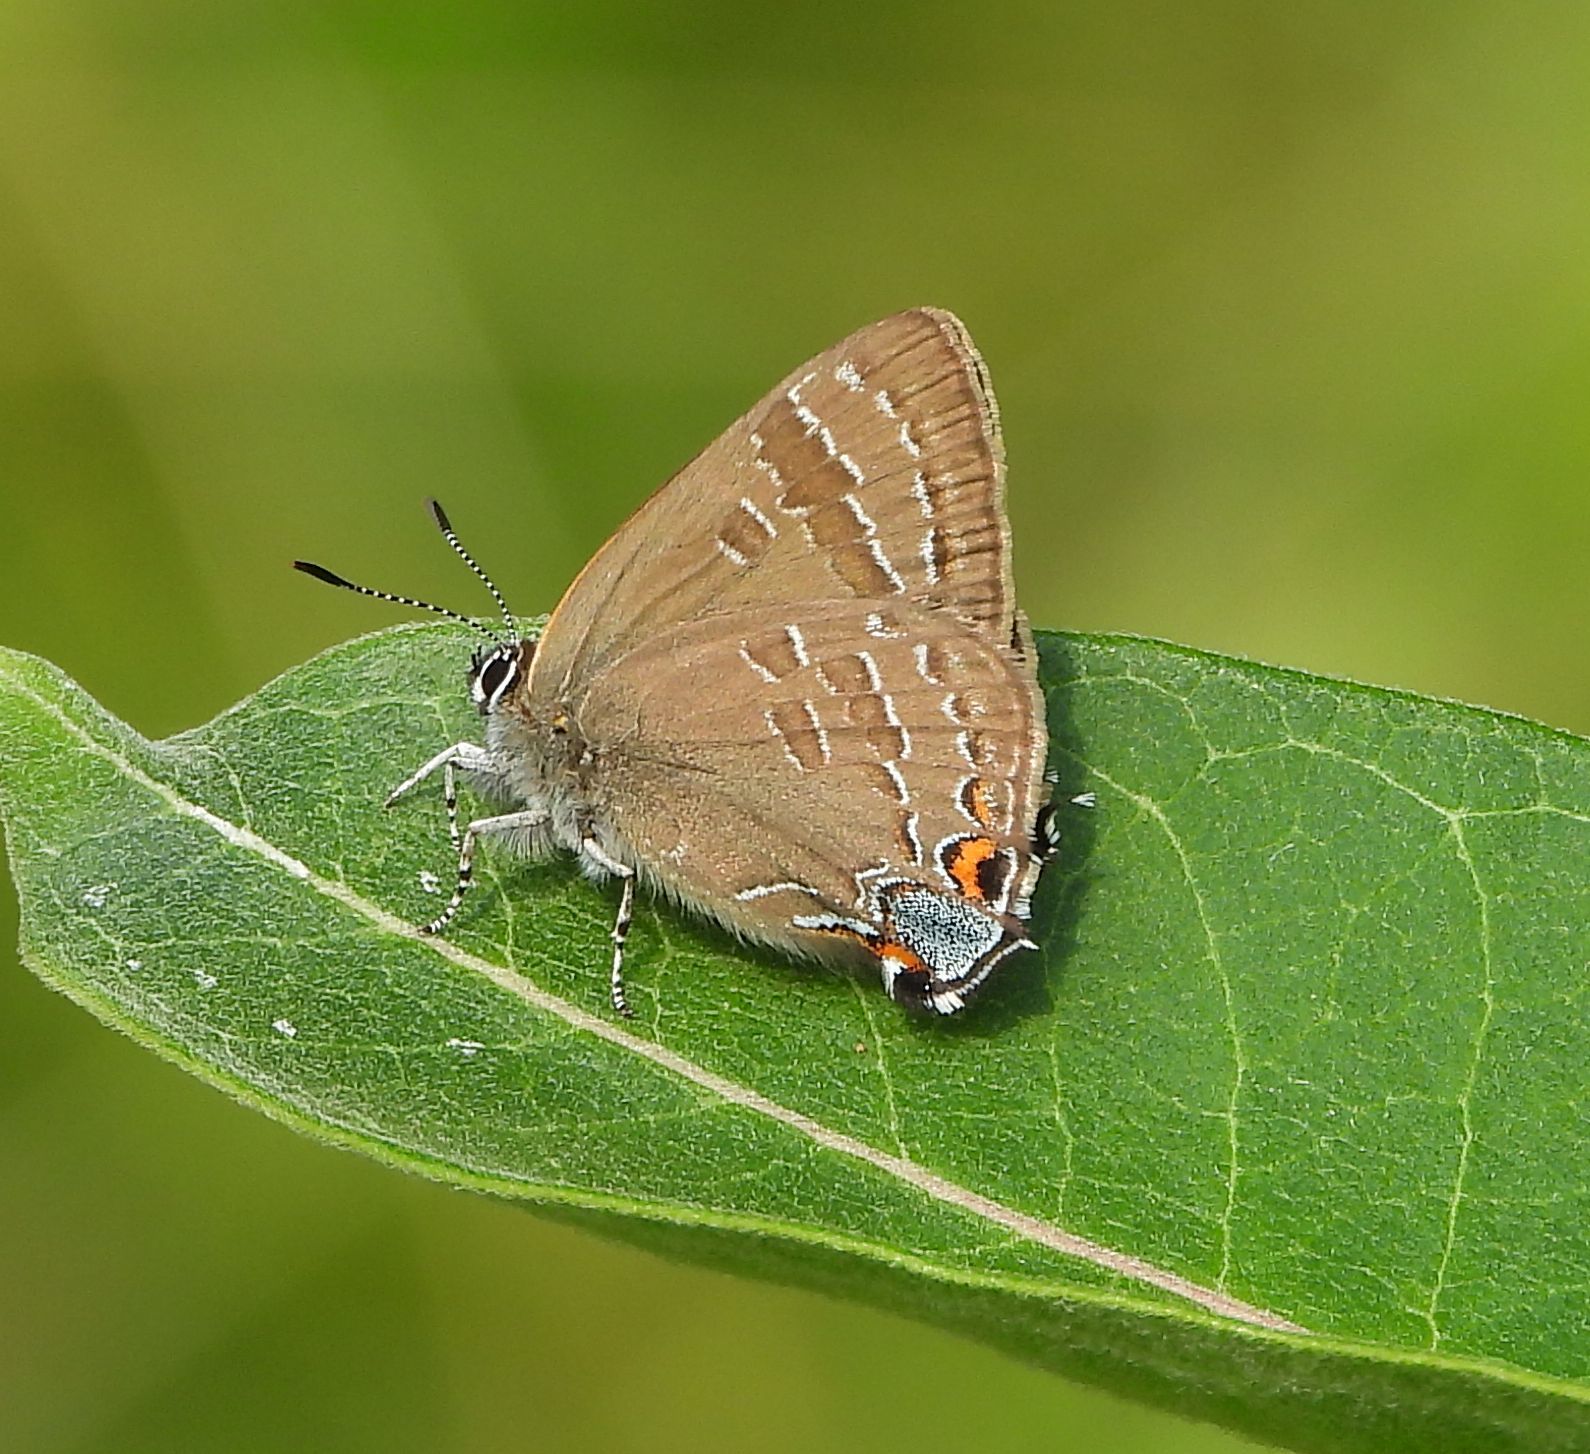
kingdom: Animalia
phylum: Arthropoda
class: Insecta
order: Lepidoptera
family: Lycaenidae
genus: Strymon
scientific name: Strymon caryaevorus
